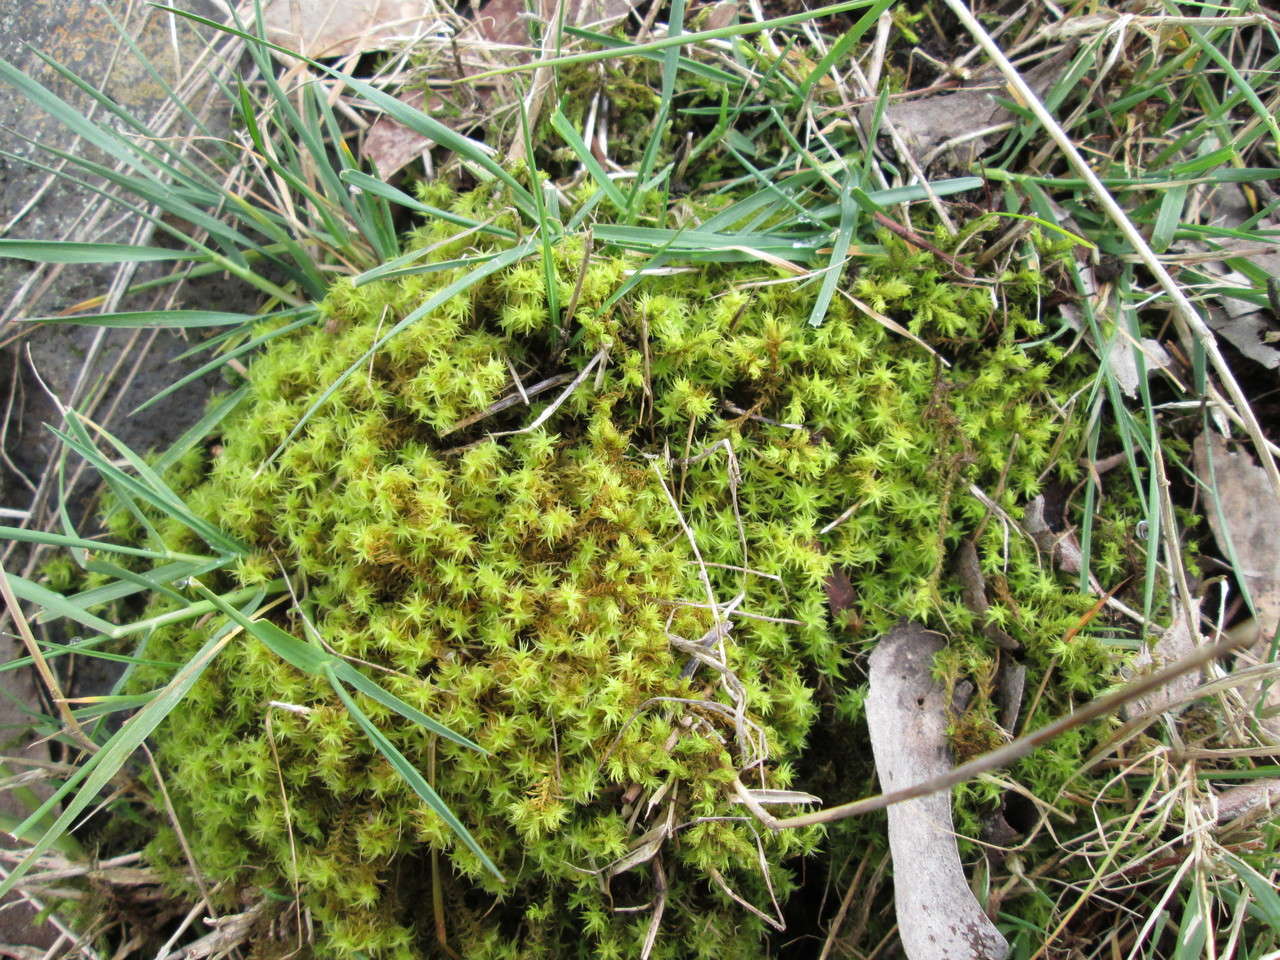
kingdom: Plantae
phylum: Bryophyta
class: Bryopsida
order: Pottiales
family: Pottiaceae
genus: Triquetrella
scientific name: Triquetrella paradoxa
